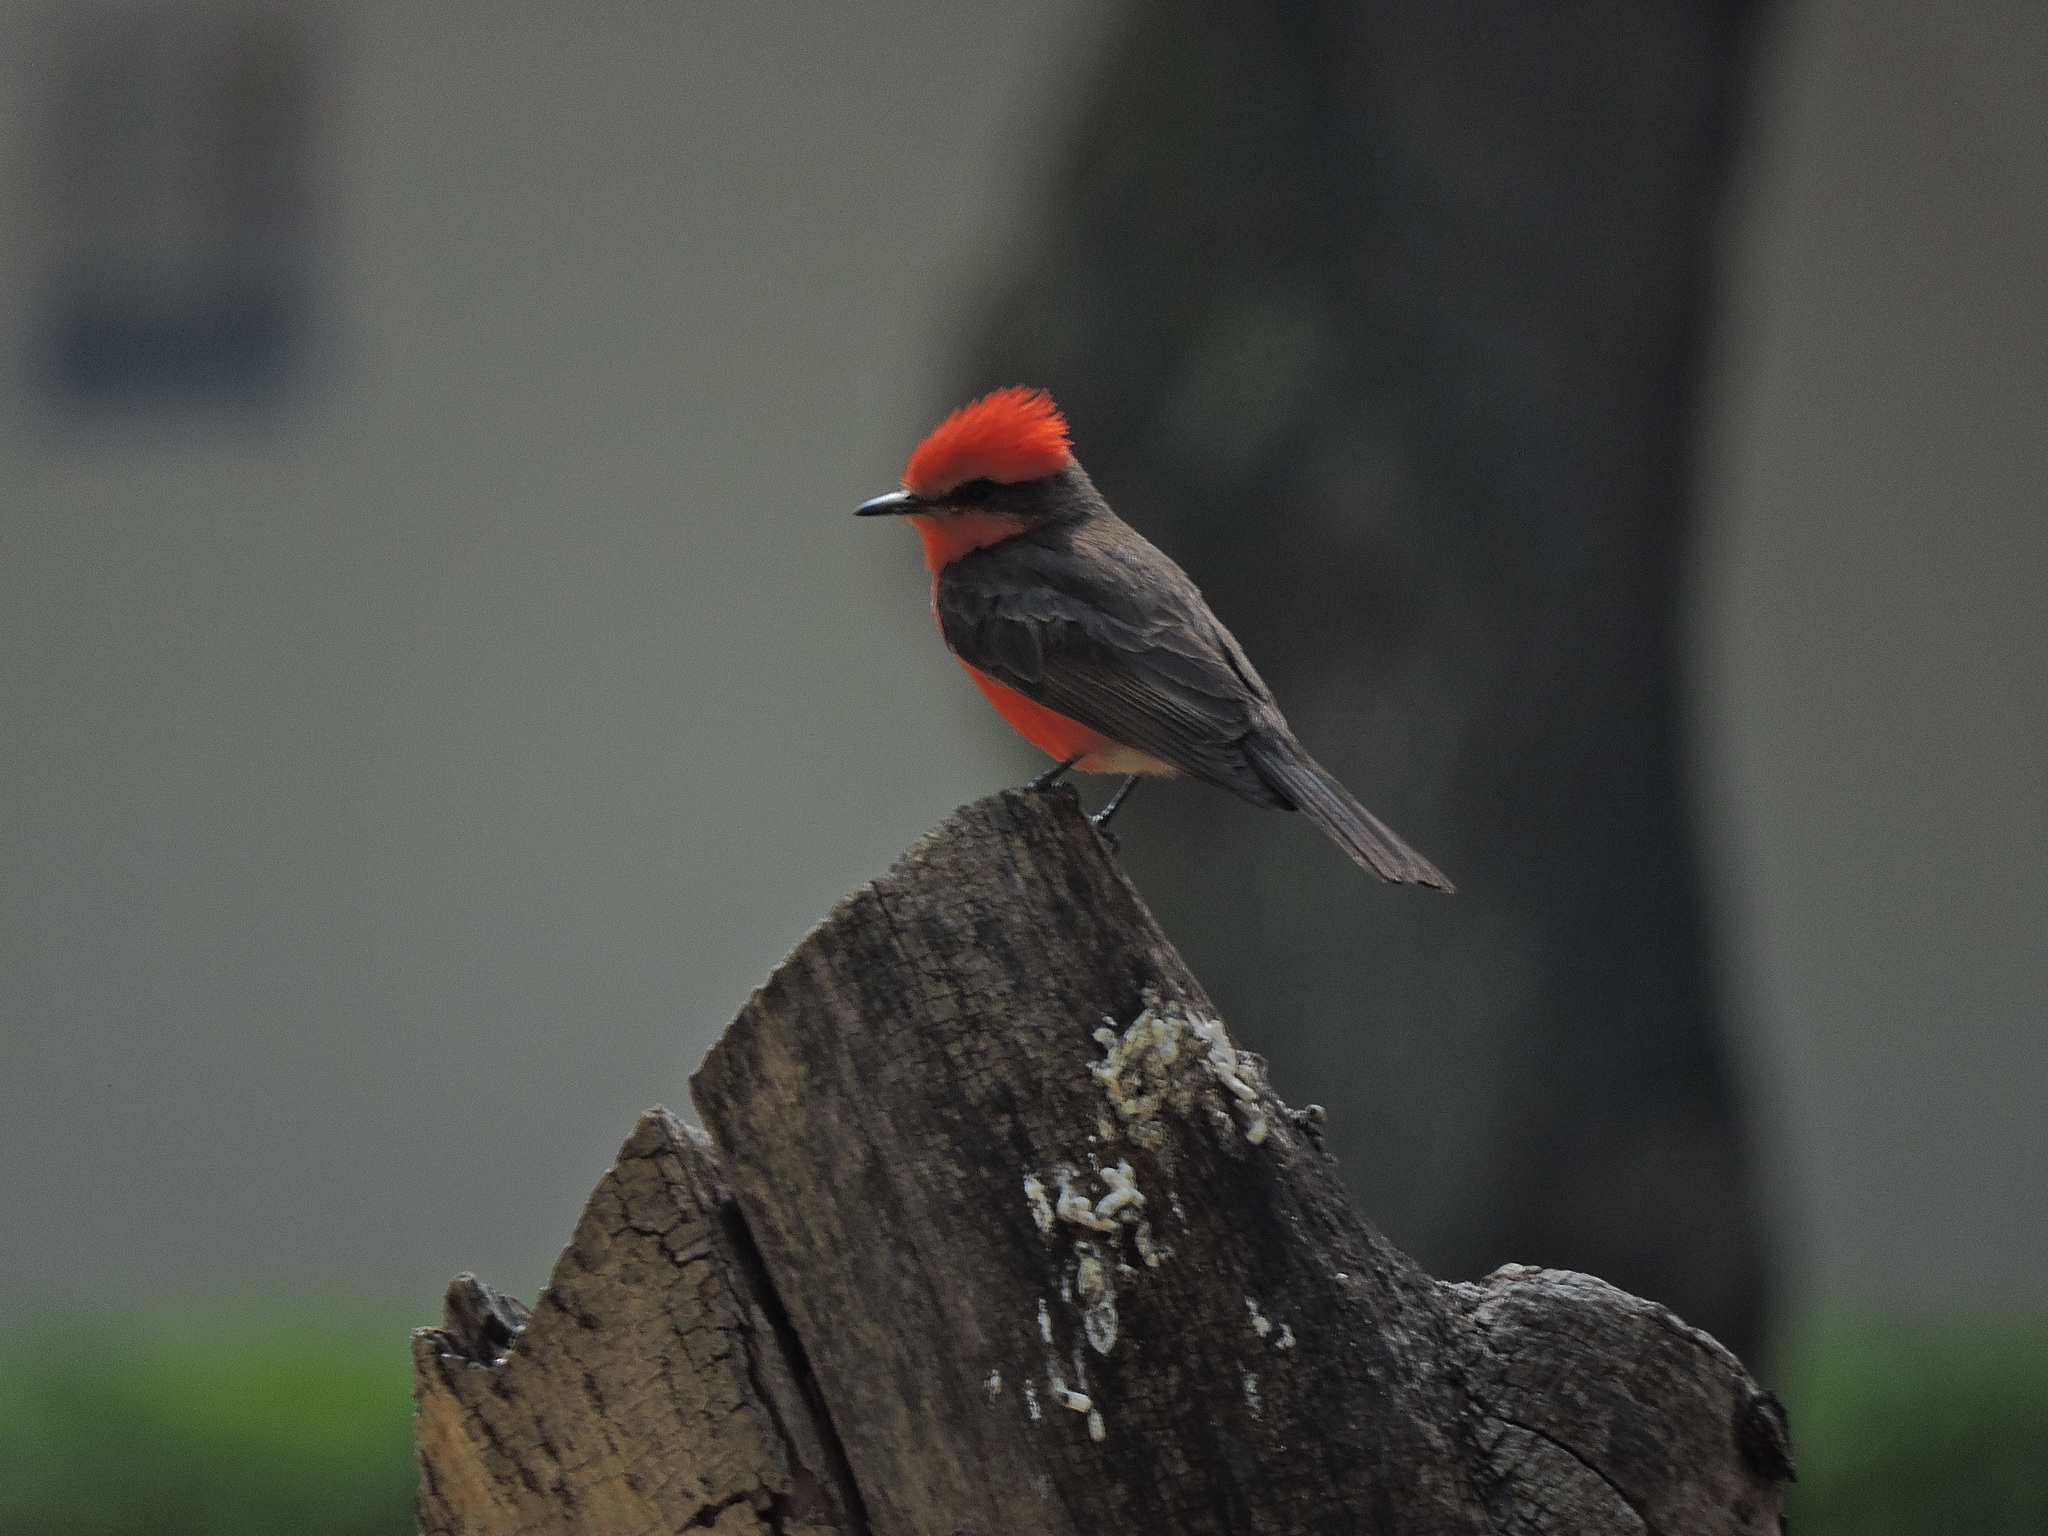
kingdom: Animalia
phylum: Chordata
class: Aves
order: Passeriformes
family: Tyrannidae
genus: Pyrocephalus
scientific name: Pyrocephalus rubinus
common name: Vermilion flycatcher
